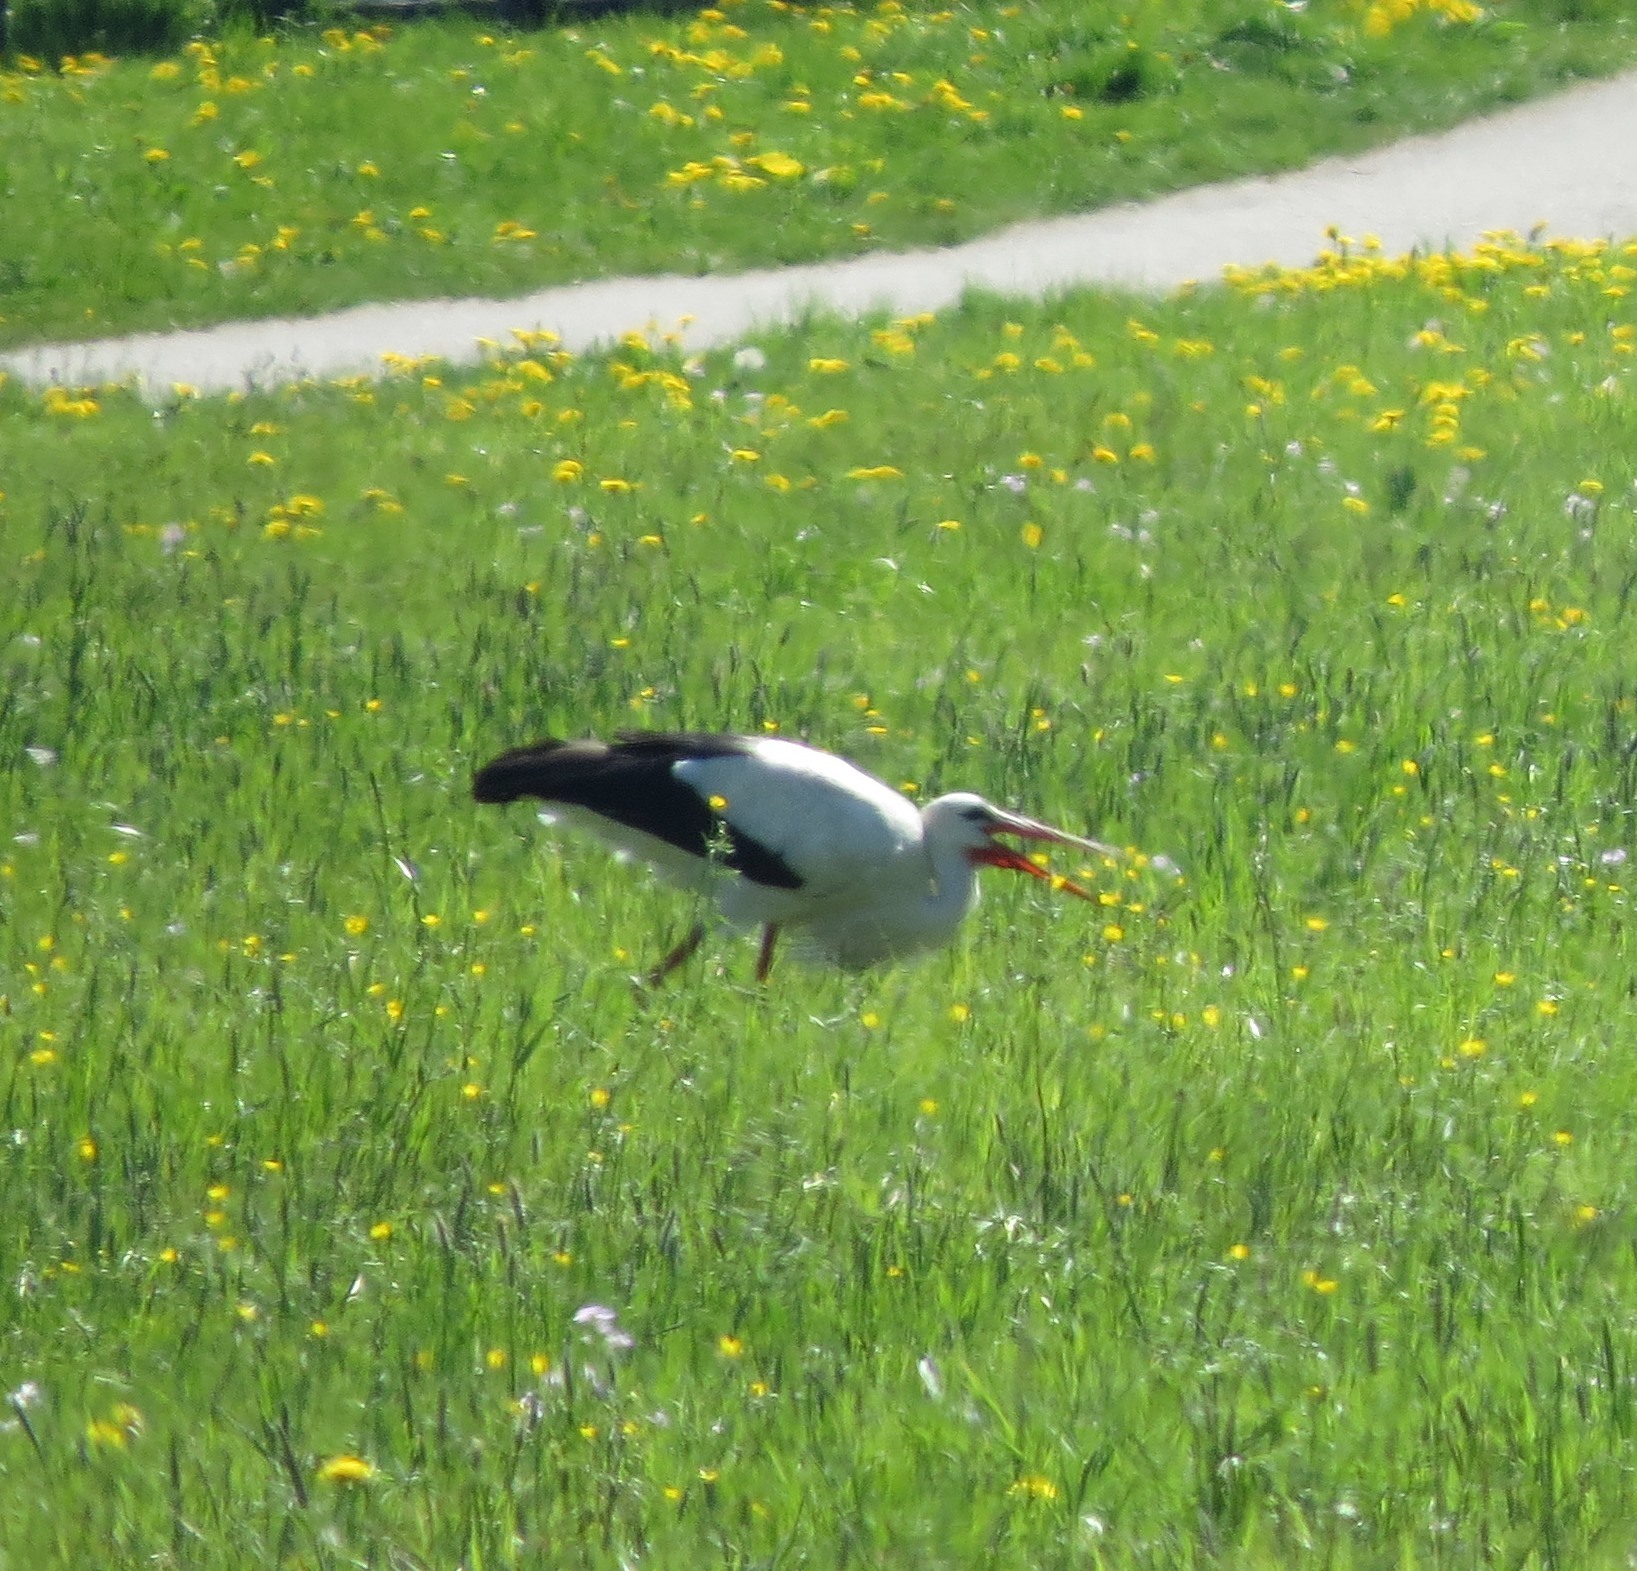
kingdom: Animalia
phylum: Chordata
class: Aves
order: Ciconiiformes
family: Ciconiidae
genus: Ciconia
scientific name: Ciconia ciconia
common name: White stork
